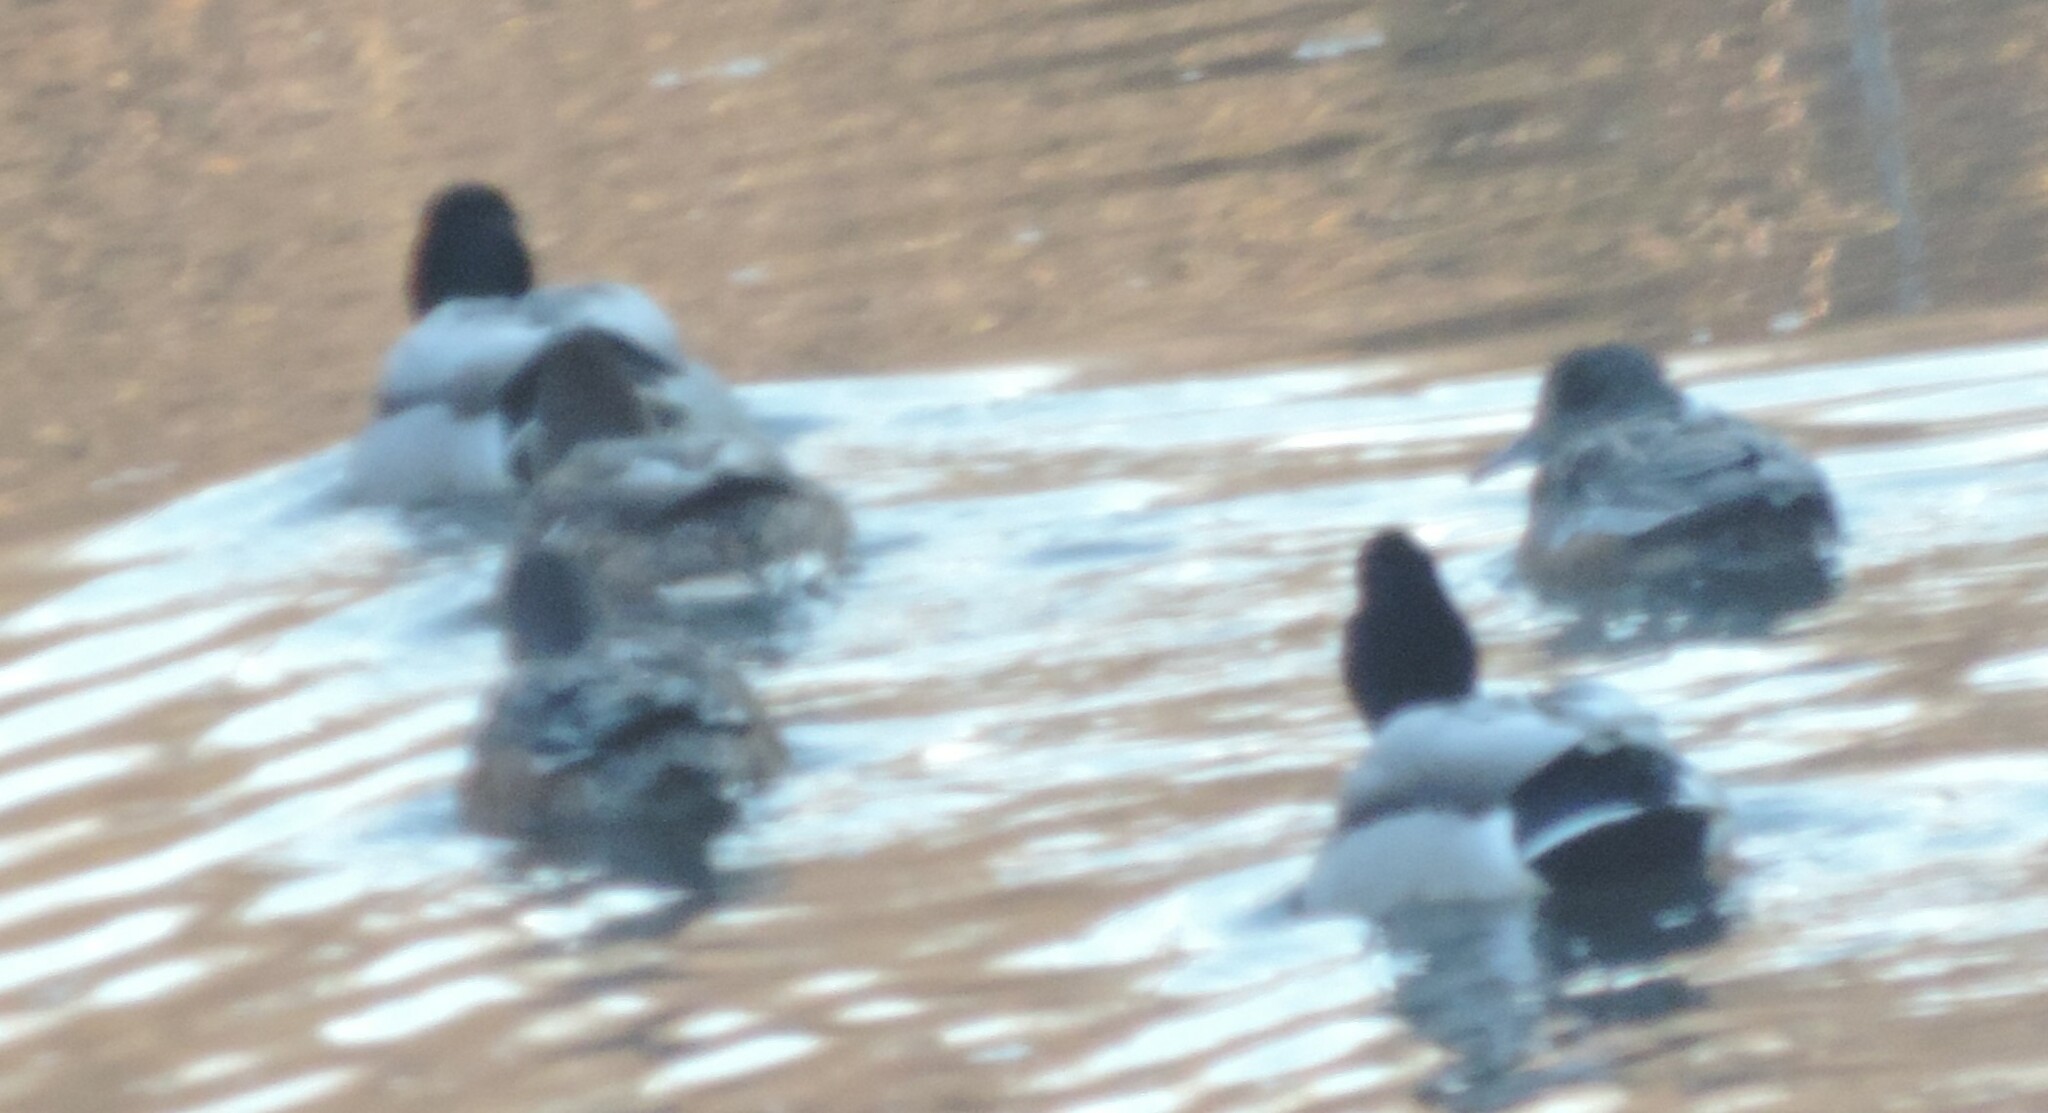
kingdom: Animalia
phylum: Chordata
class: Aves
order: Anseriformes
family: Anatidae
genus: Anas
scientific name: Anas platyrhynchos
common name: Mallard
